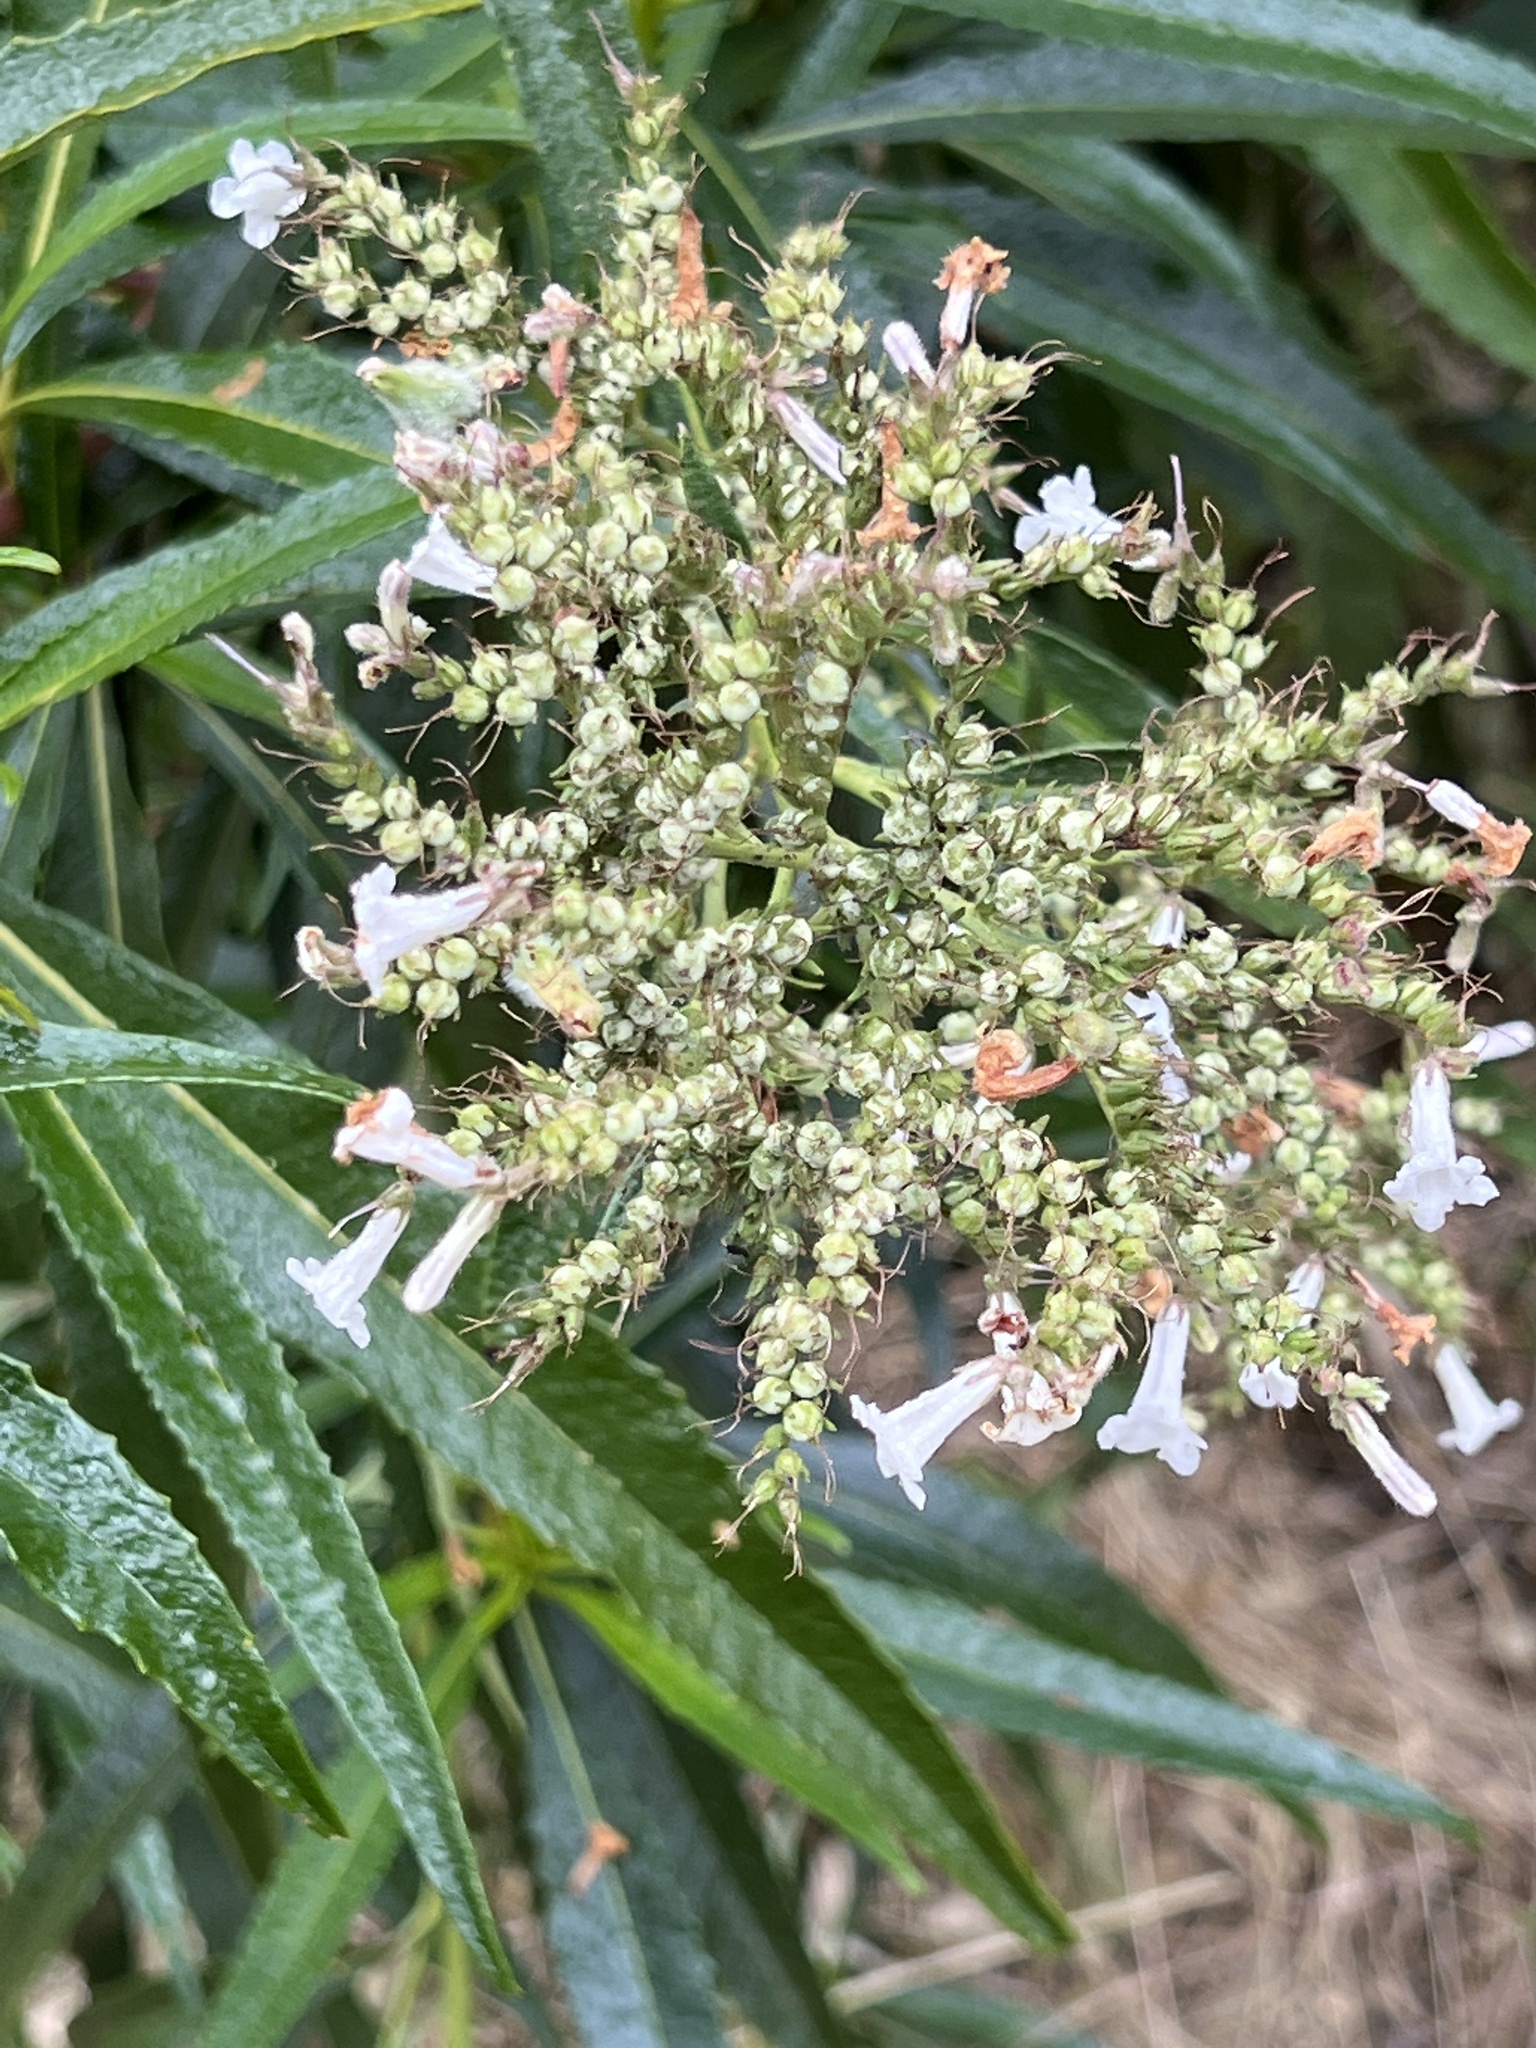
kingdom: Plantae
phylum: Tracheophyta
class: Magnoliopsida
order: Boraginales
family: Namaceae
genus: Eriodictyon
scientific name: Eriodictyon californicum
